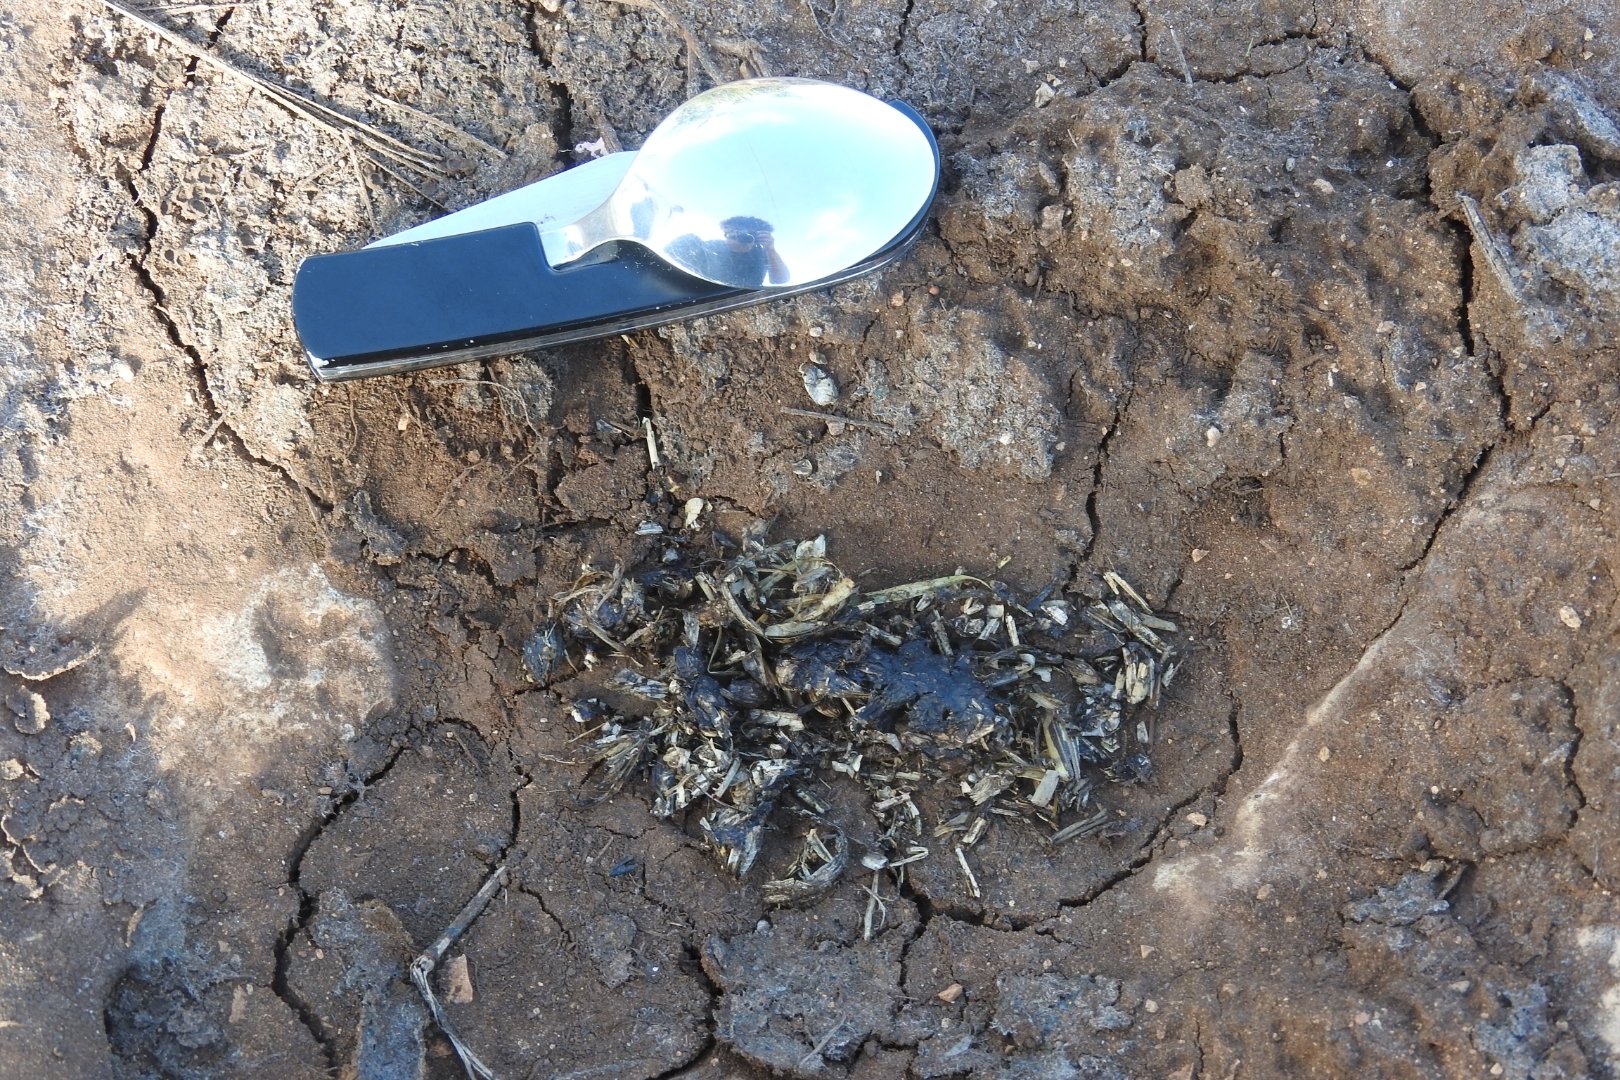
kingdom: Animalia
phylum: Chordata
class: Mammalia
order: Carnivora
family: Canidae
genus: Canis
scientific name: Canis lupus
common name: Gray wolf
